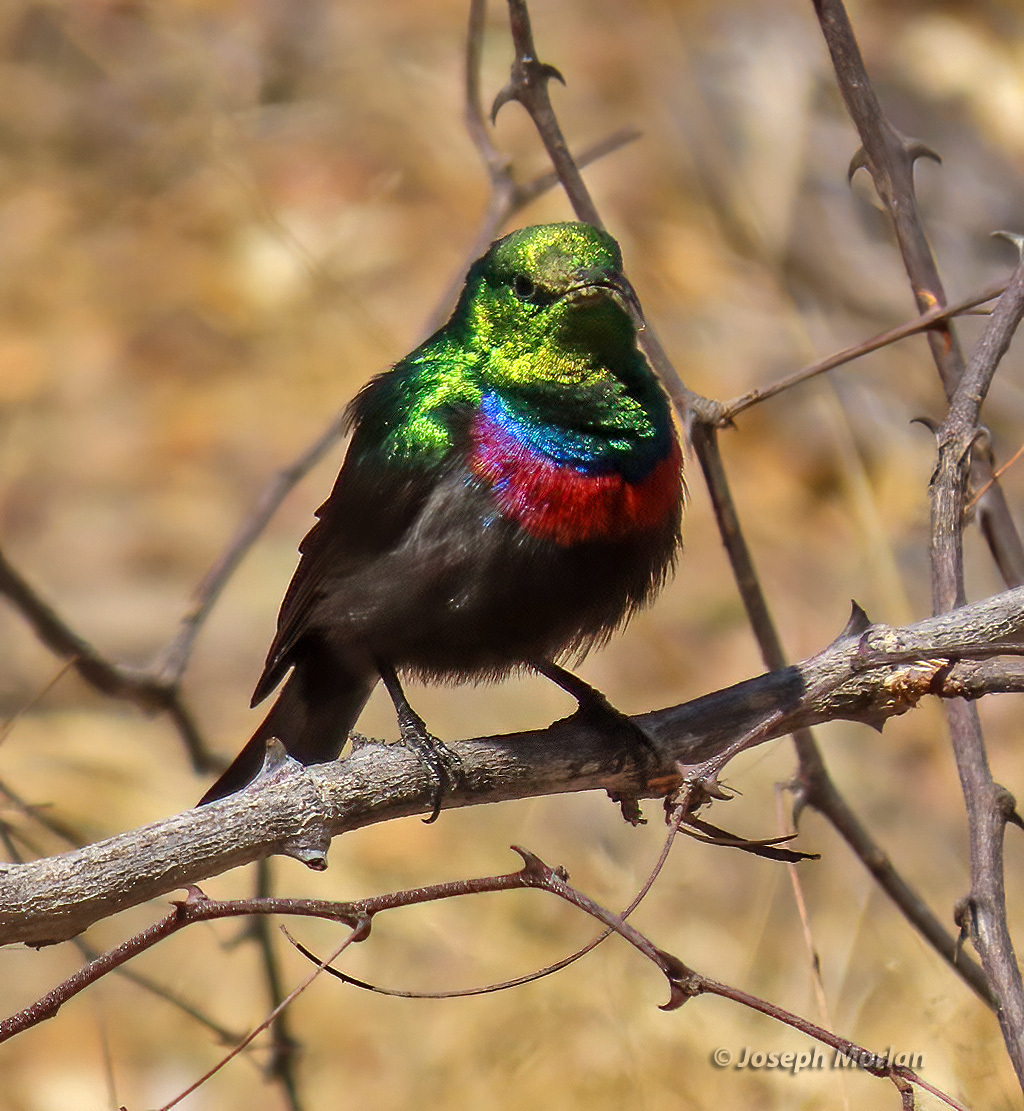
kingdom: Animalia
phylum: Chordata
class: Aves
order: Passeriformes
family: Nectariniidae
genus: Cinnyris
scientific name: Cinnyris mariquensis
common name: Marico sunbird
